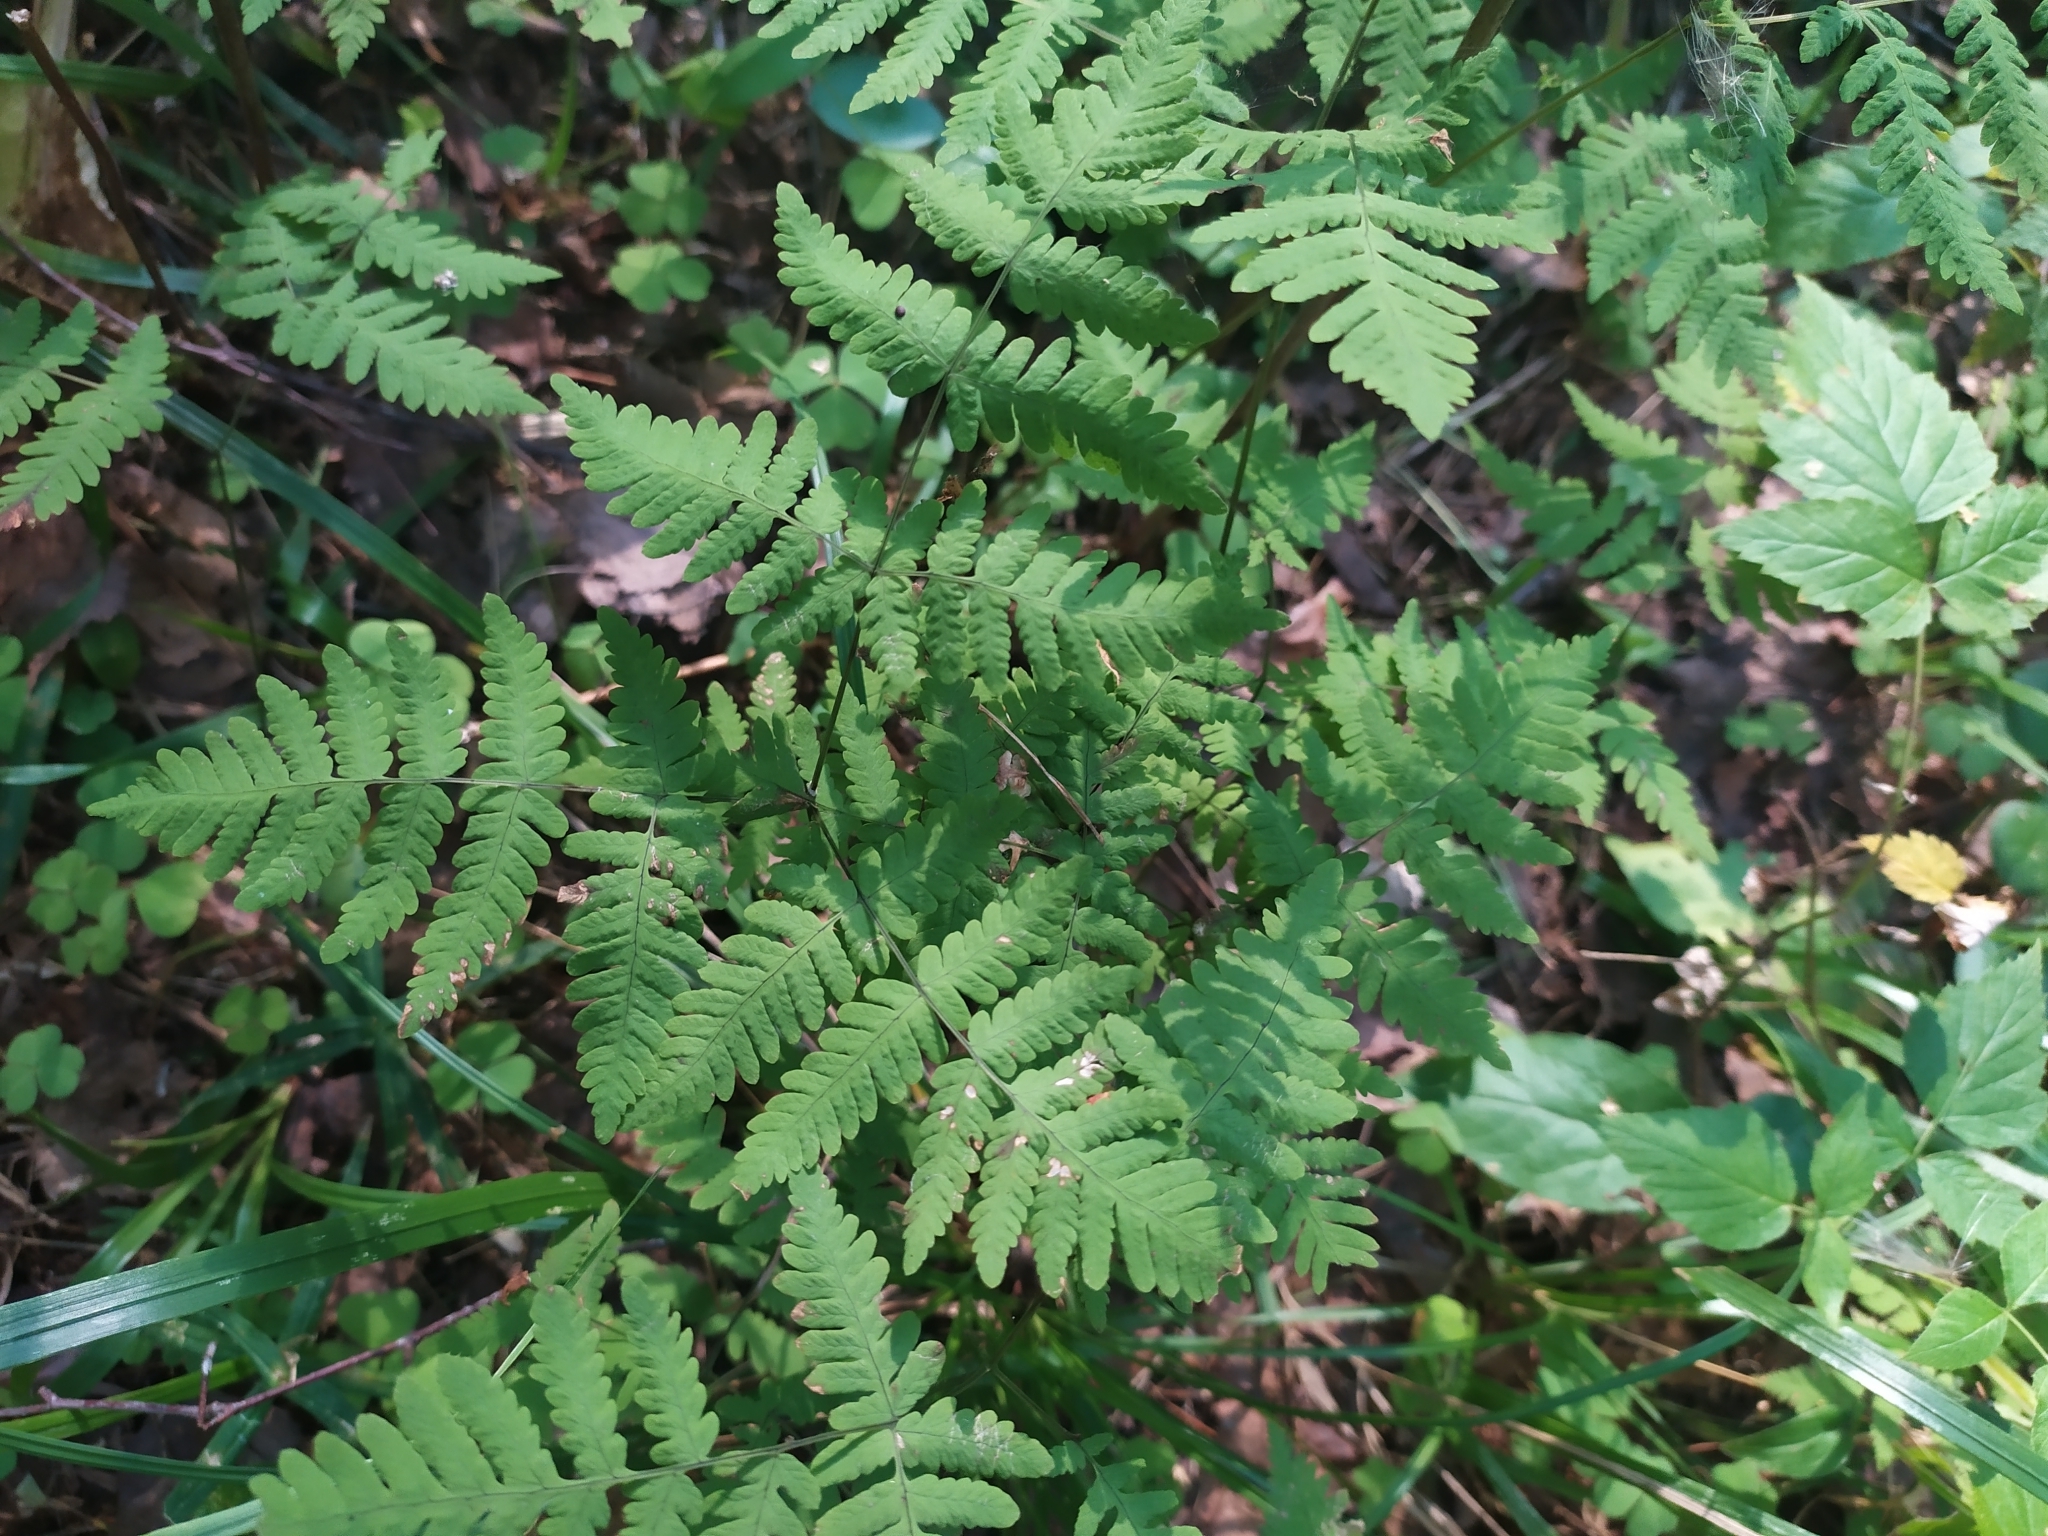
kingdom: Plantae
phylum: Tracheophyta
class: Polypodiopsida
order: Polypodiales
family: Cystopteridaceae
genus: Gymnocarpium
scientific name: Gymnocarpium dryopteris
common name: Oak fern
